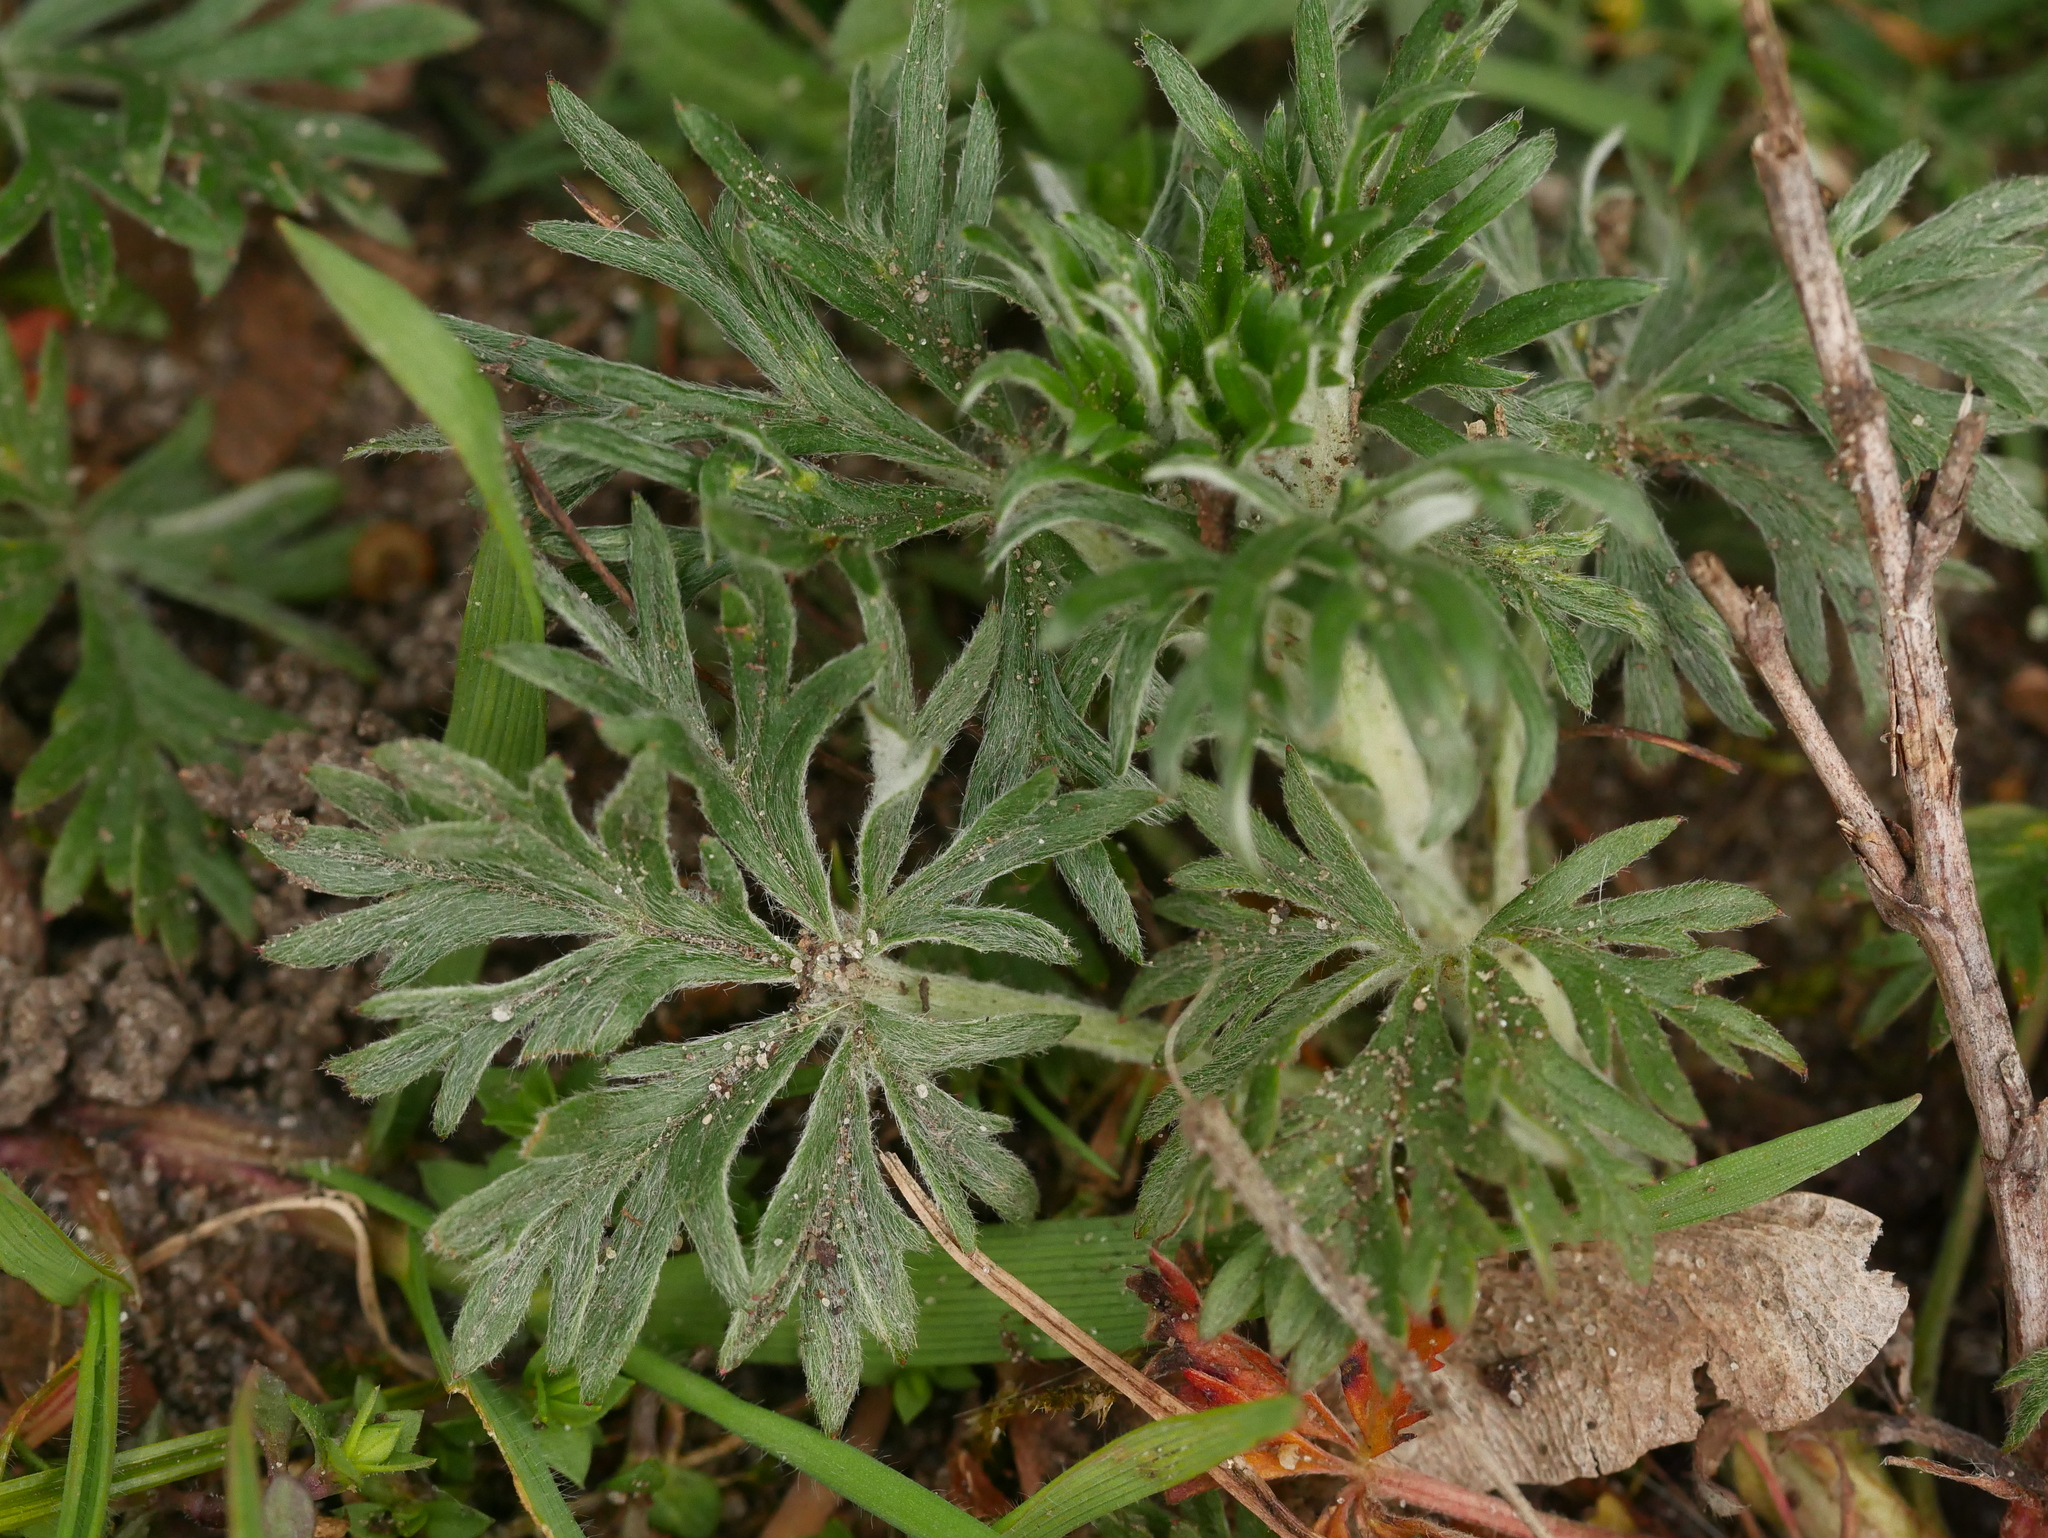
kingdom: Plantae
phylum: Tracheophyta
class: Magnoliopsida
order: Rosales
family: Rosaceae
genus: Potentilla
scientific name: Potentilla argentea
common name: Hoary cinquefoil
